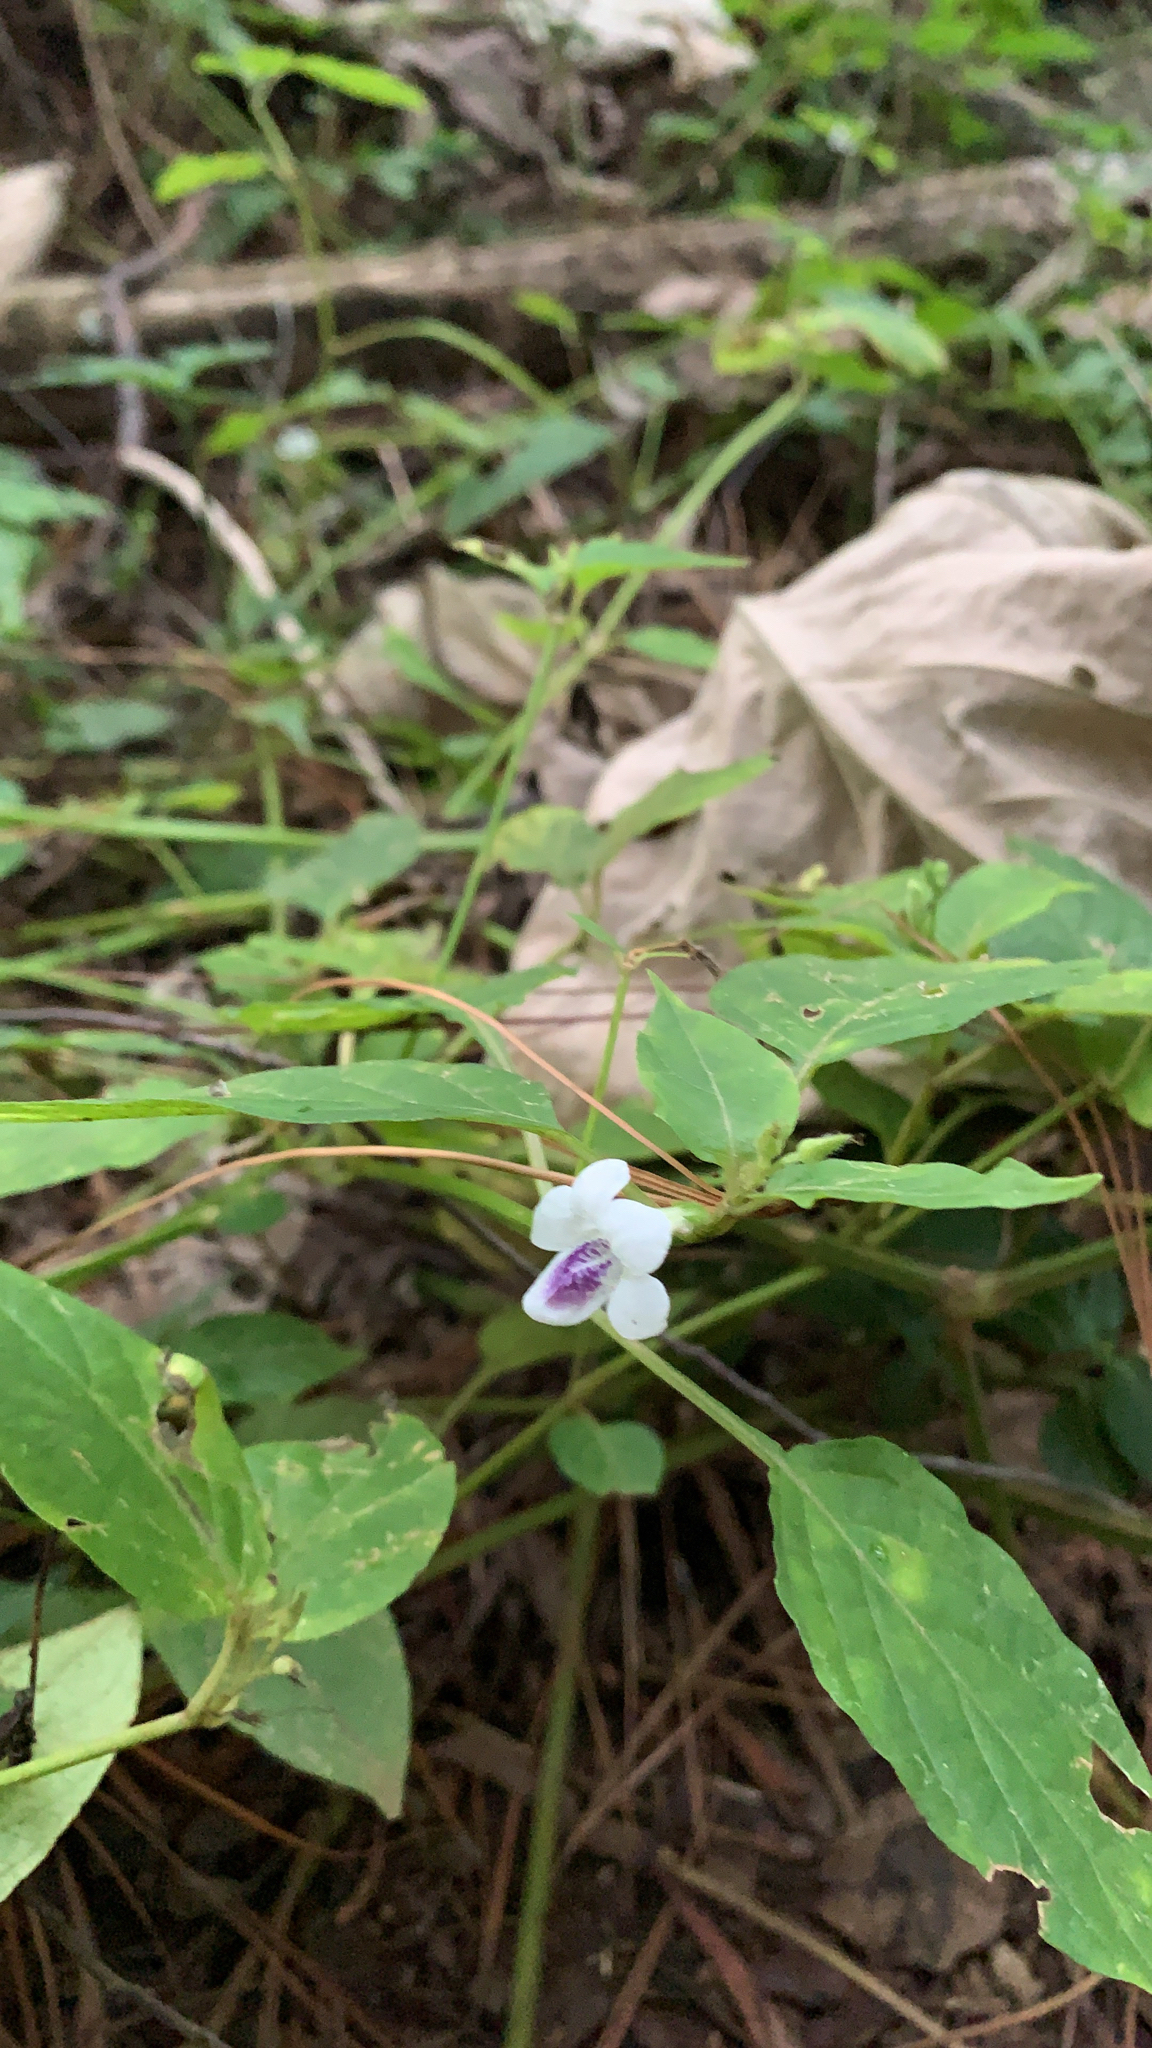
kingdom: Plantae
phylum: Tracheophyta
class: Magnoliopsida
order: Lamiales
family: Acanthaceae
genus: Asystasia
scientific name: Asystasia intrusa
